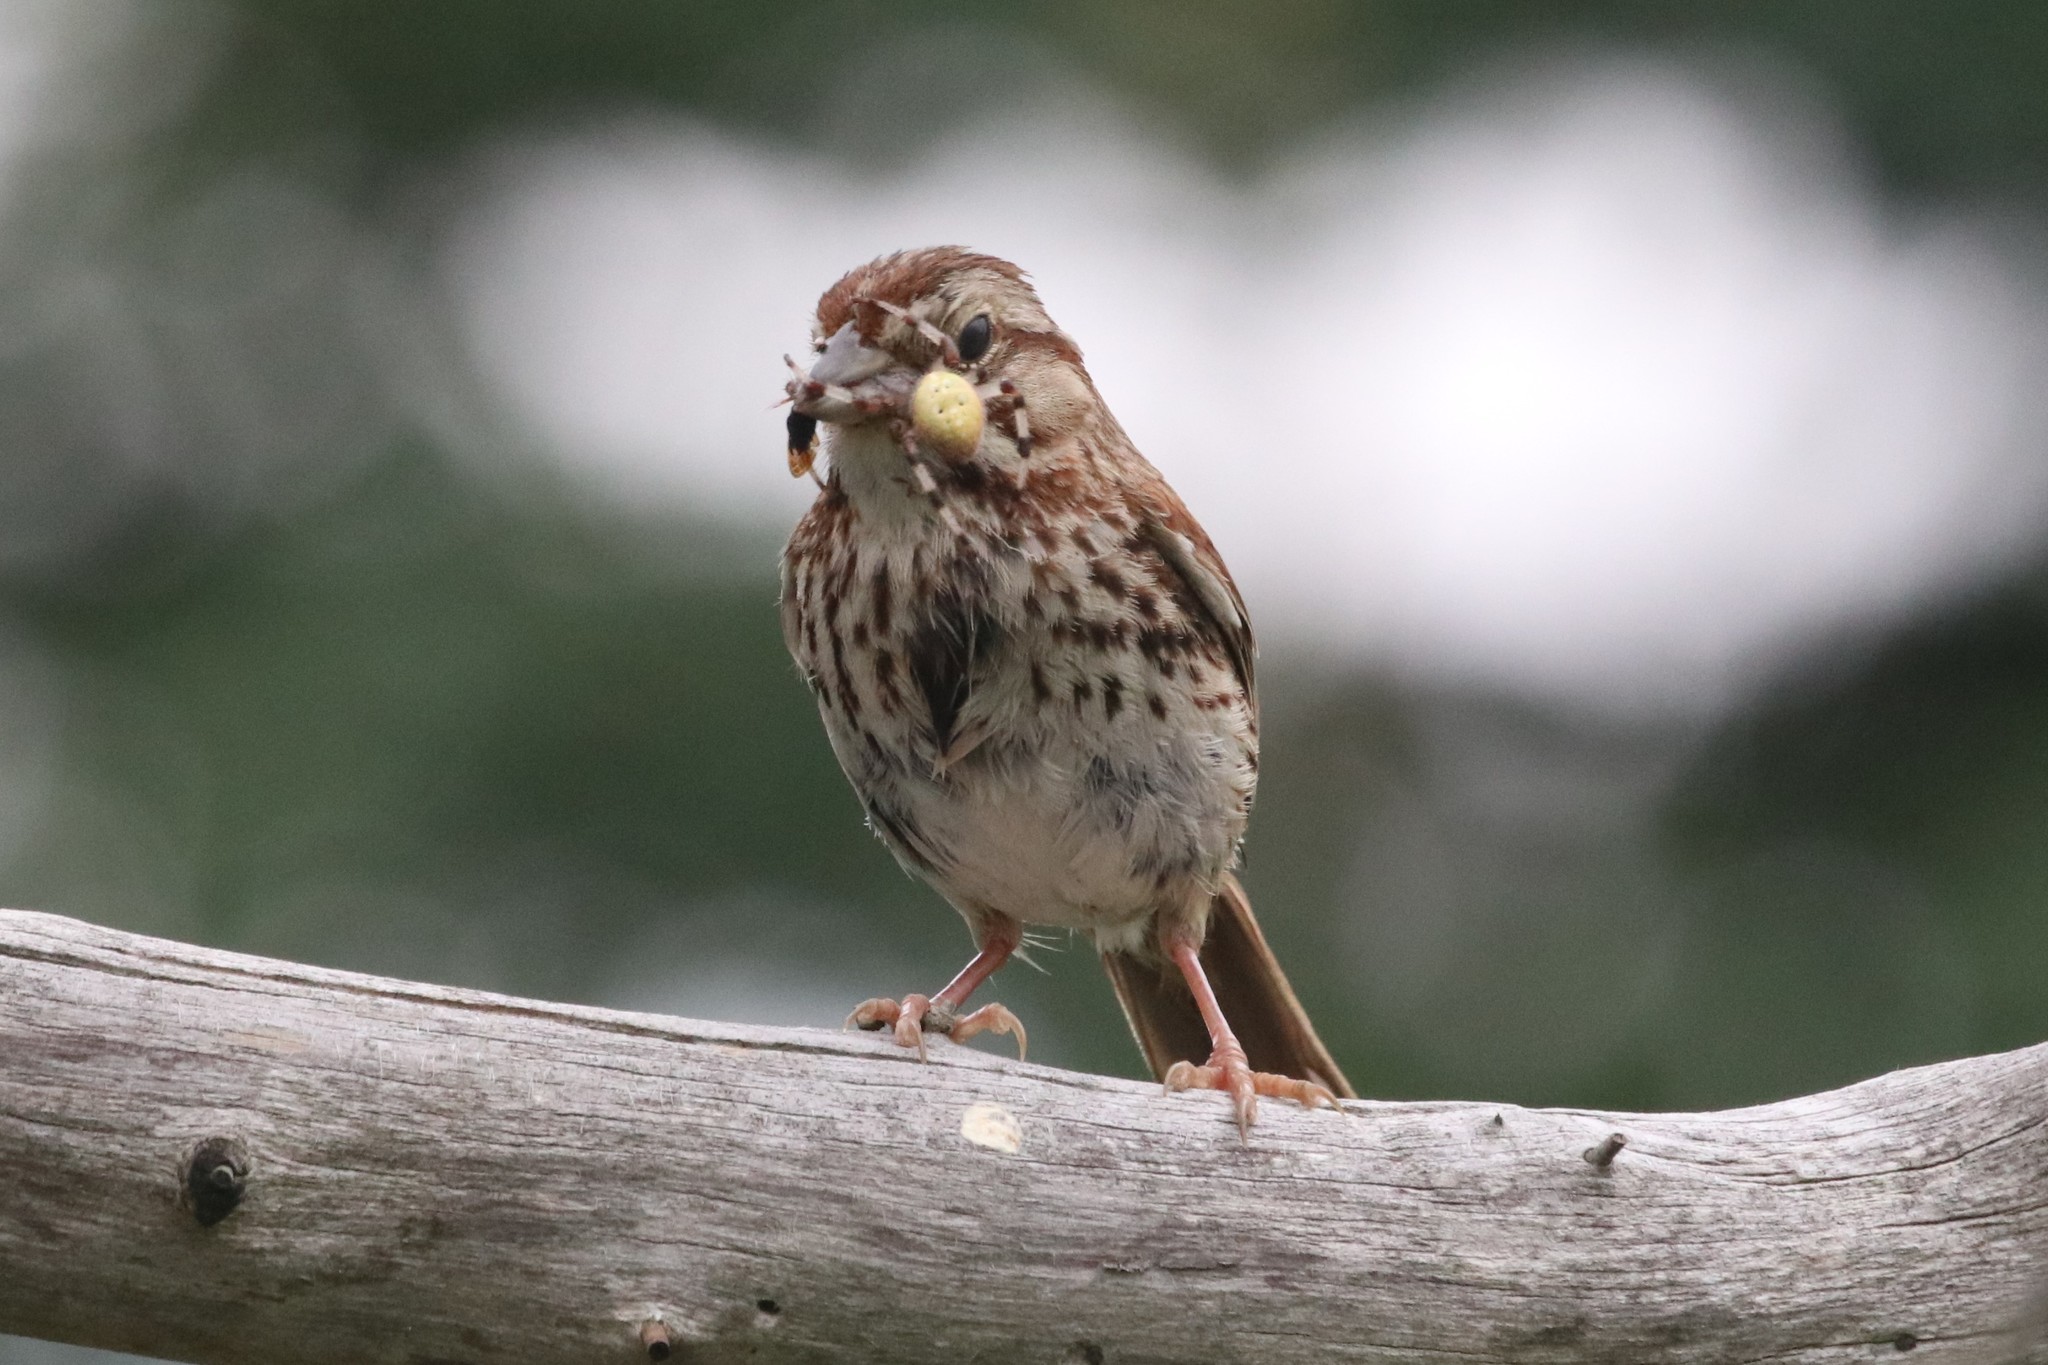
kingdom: Animalia
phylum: Chordata
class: Aves
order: Passeriformes
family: Passerellidae
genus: Melospiza
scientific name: Melospiza melodia
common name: Song sparrow
